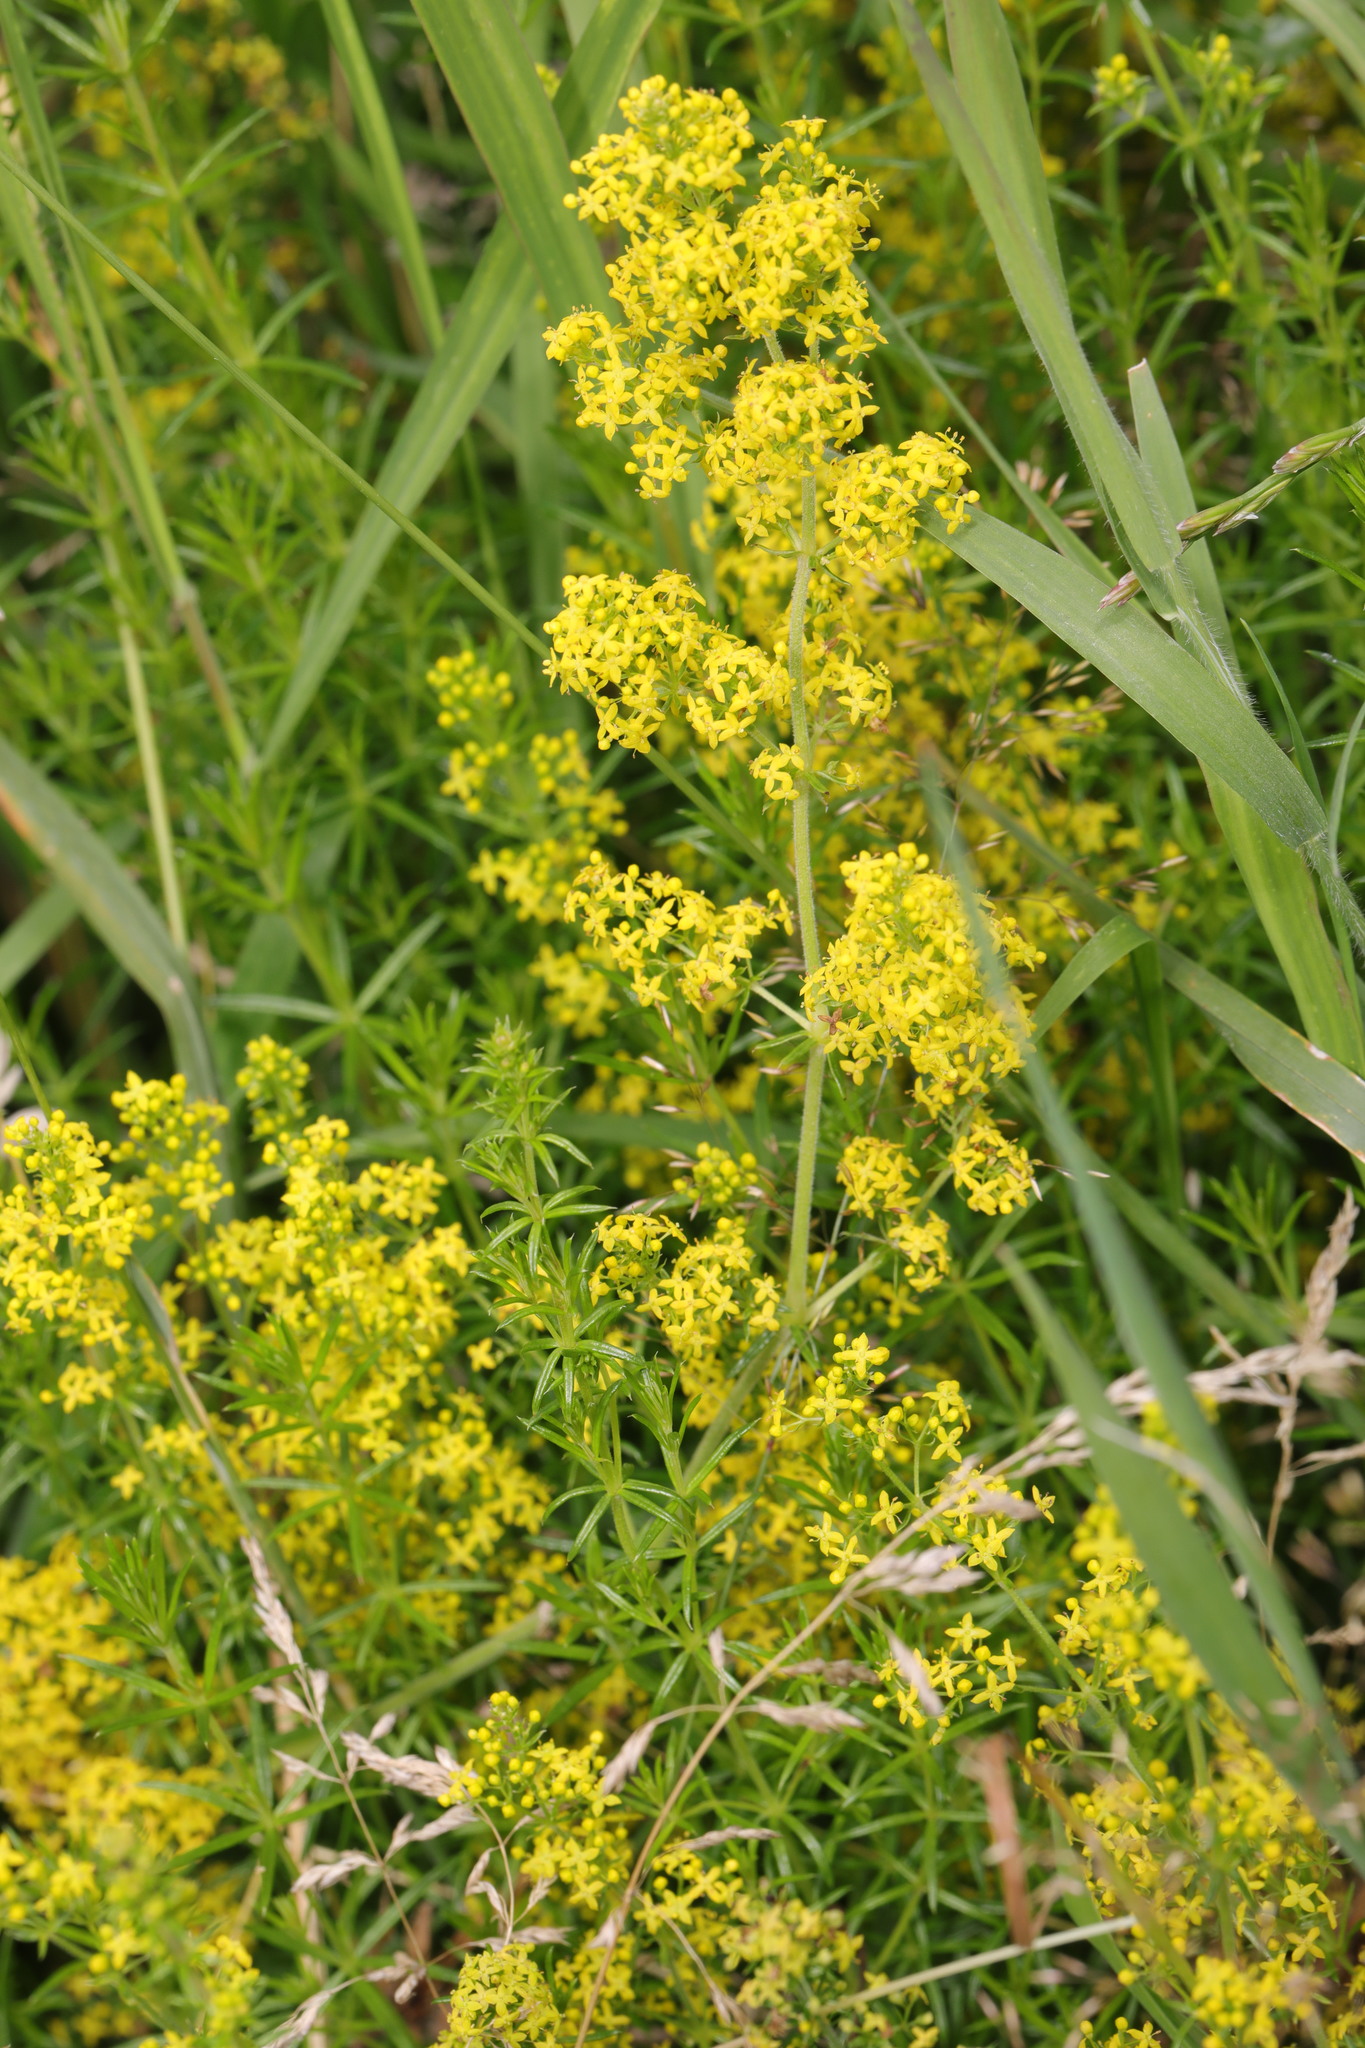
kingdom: Plantae
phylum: Tracheophyta
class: Magnoliopsida
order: Gentianales
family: Rubiaceae
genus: Galium
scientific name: Galium verum
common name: Lady's bedstraw
